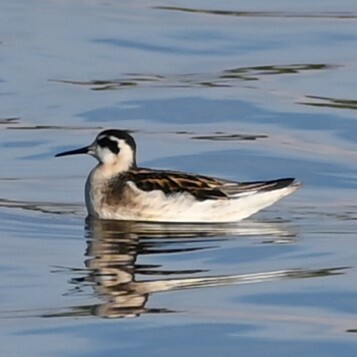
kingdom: Animalia
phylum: Chordata
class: Aves
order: Charadriiformes
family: Scolopacidae
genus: Phalaropus
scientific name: Phalaropus lobatus
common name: Red-necked phalarope
